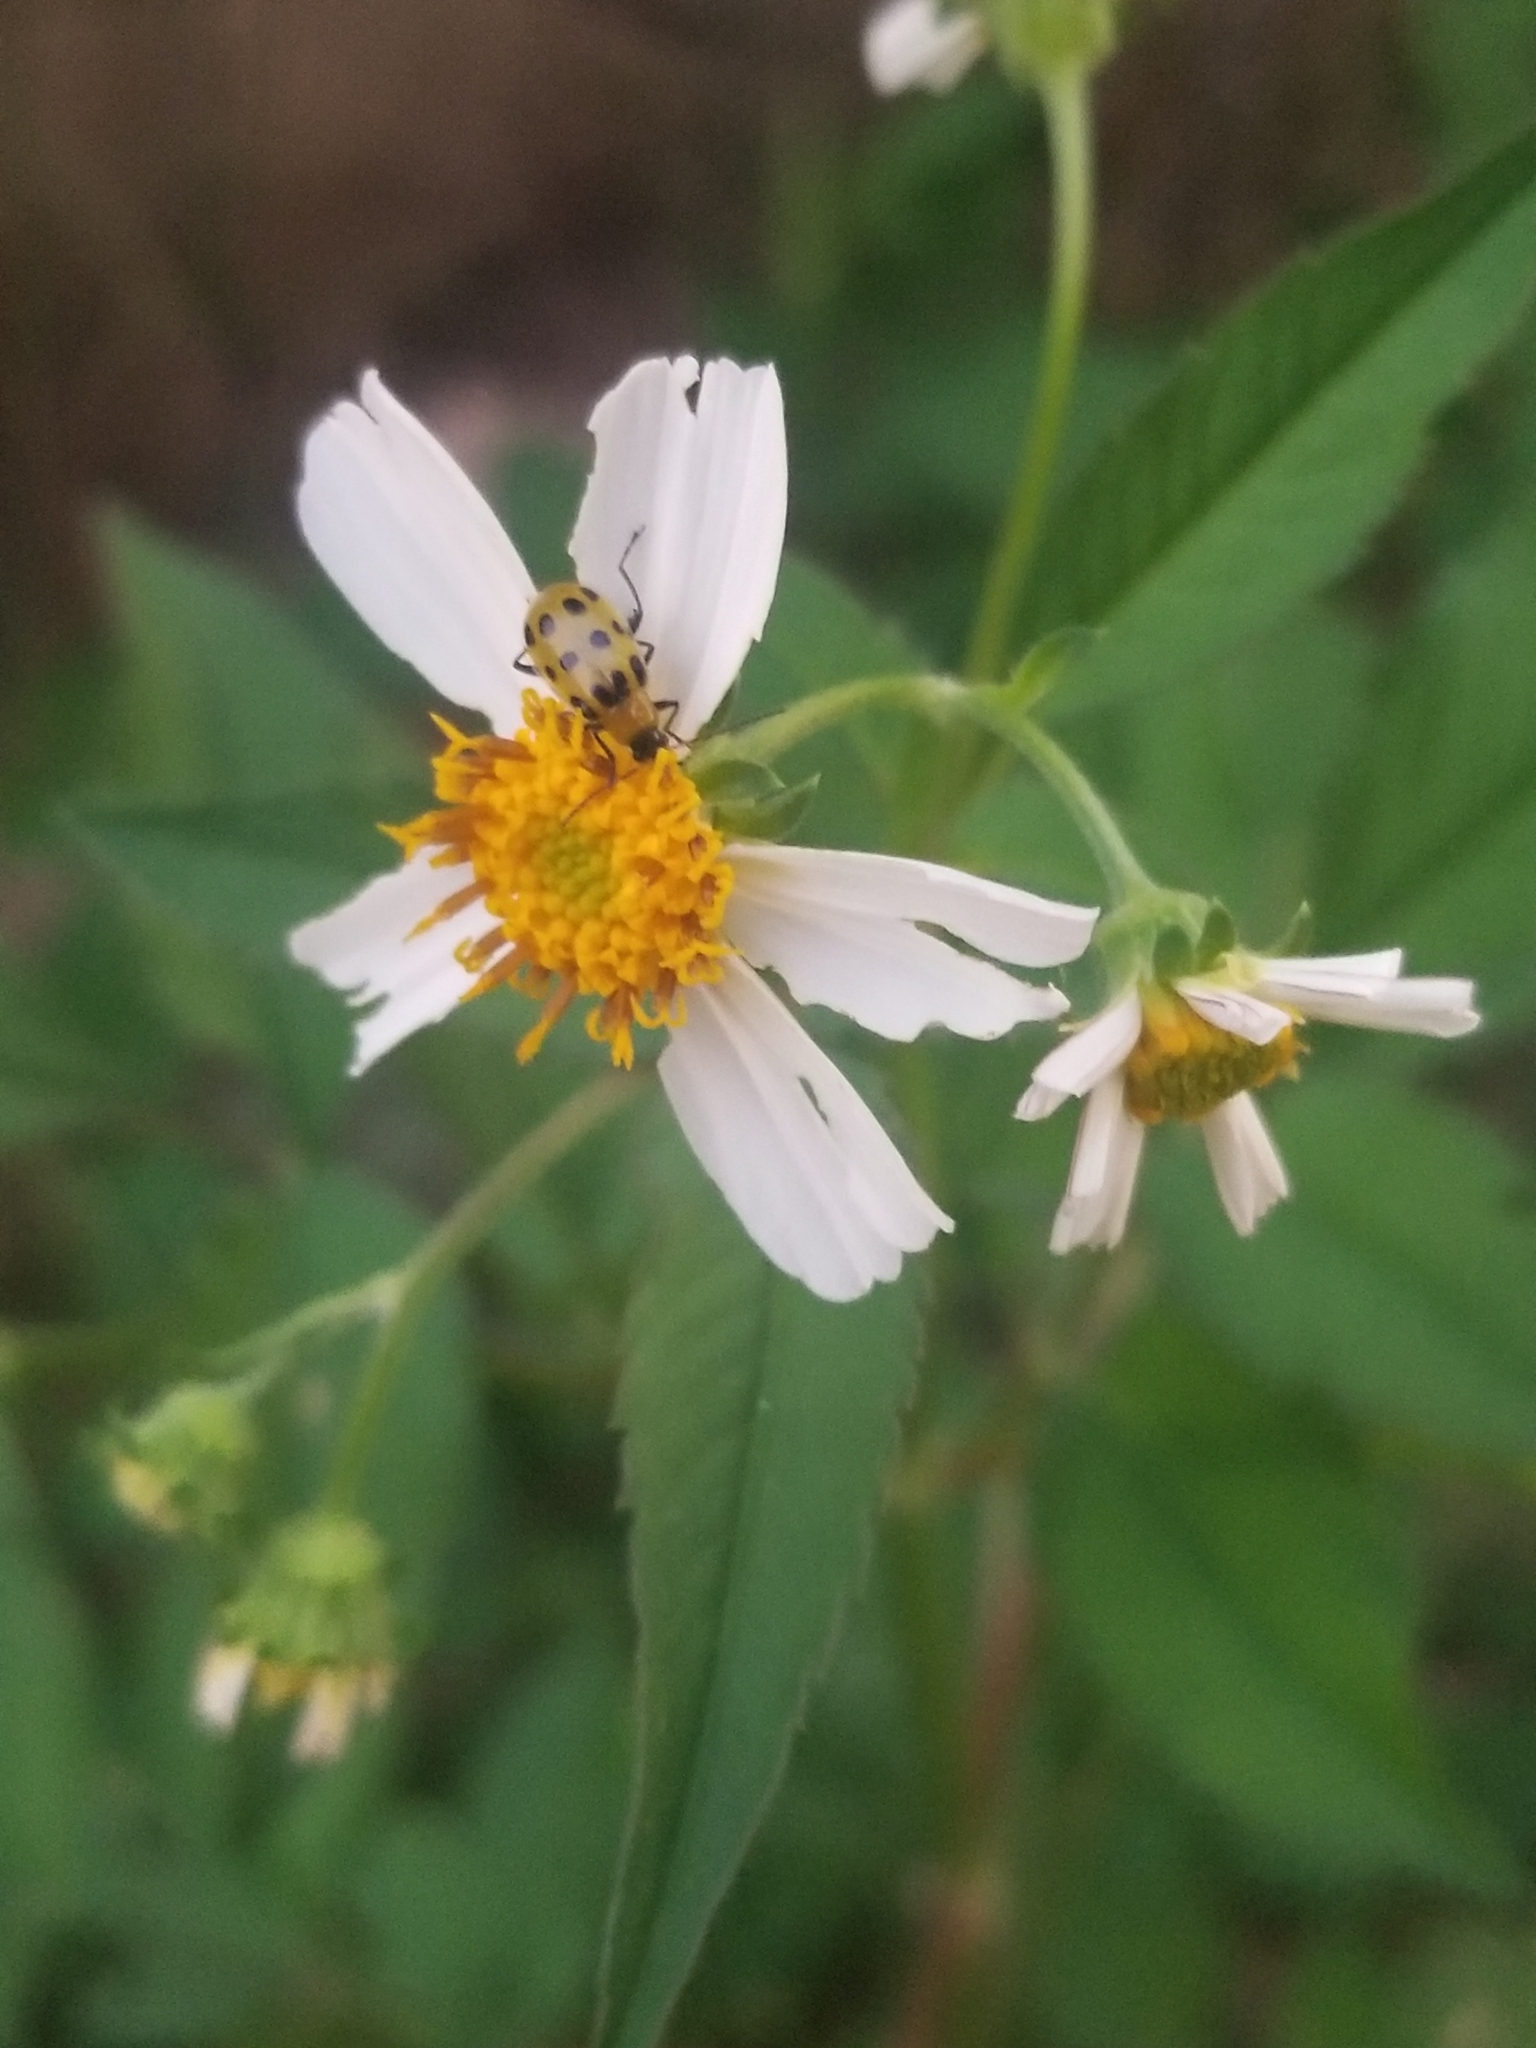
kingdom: Animalia
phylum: Arthropoda
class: Insecta
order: Coleoptera
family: Chrysomelidae
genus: Diabrotica
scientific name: Diabrotica undecimpunctata
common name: Spotted cucumber beetle
